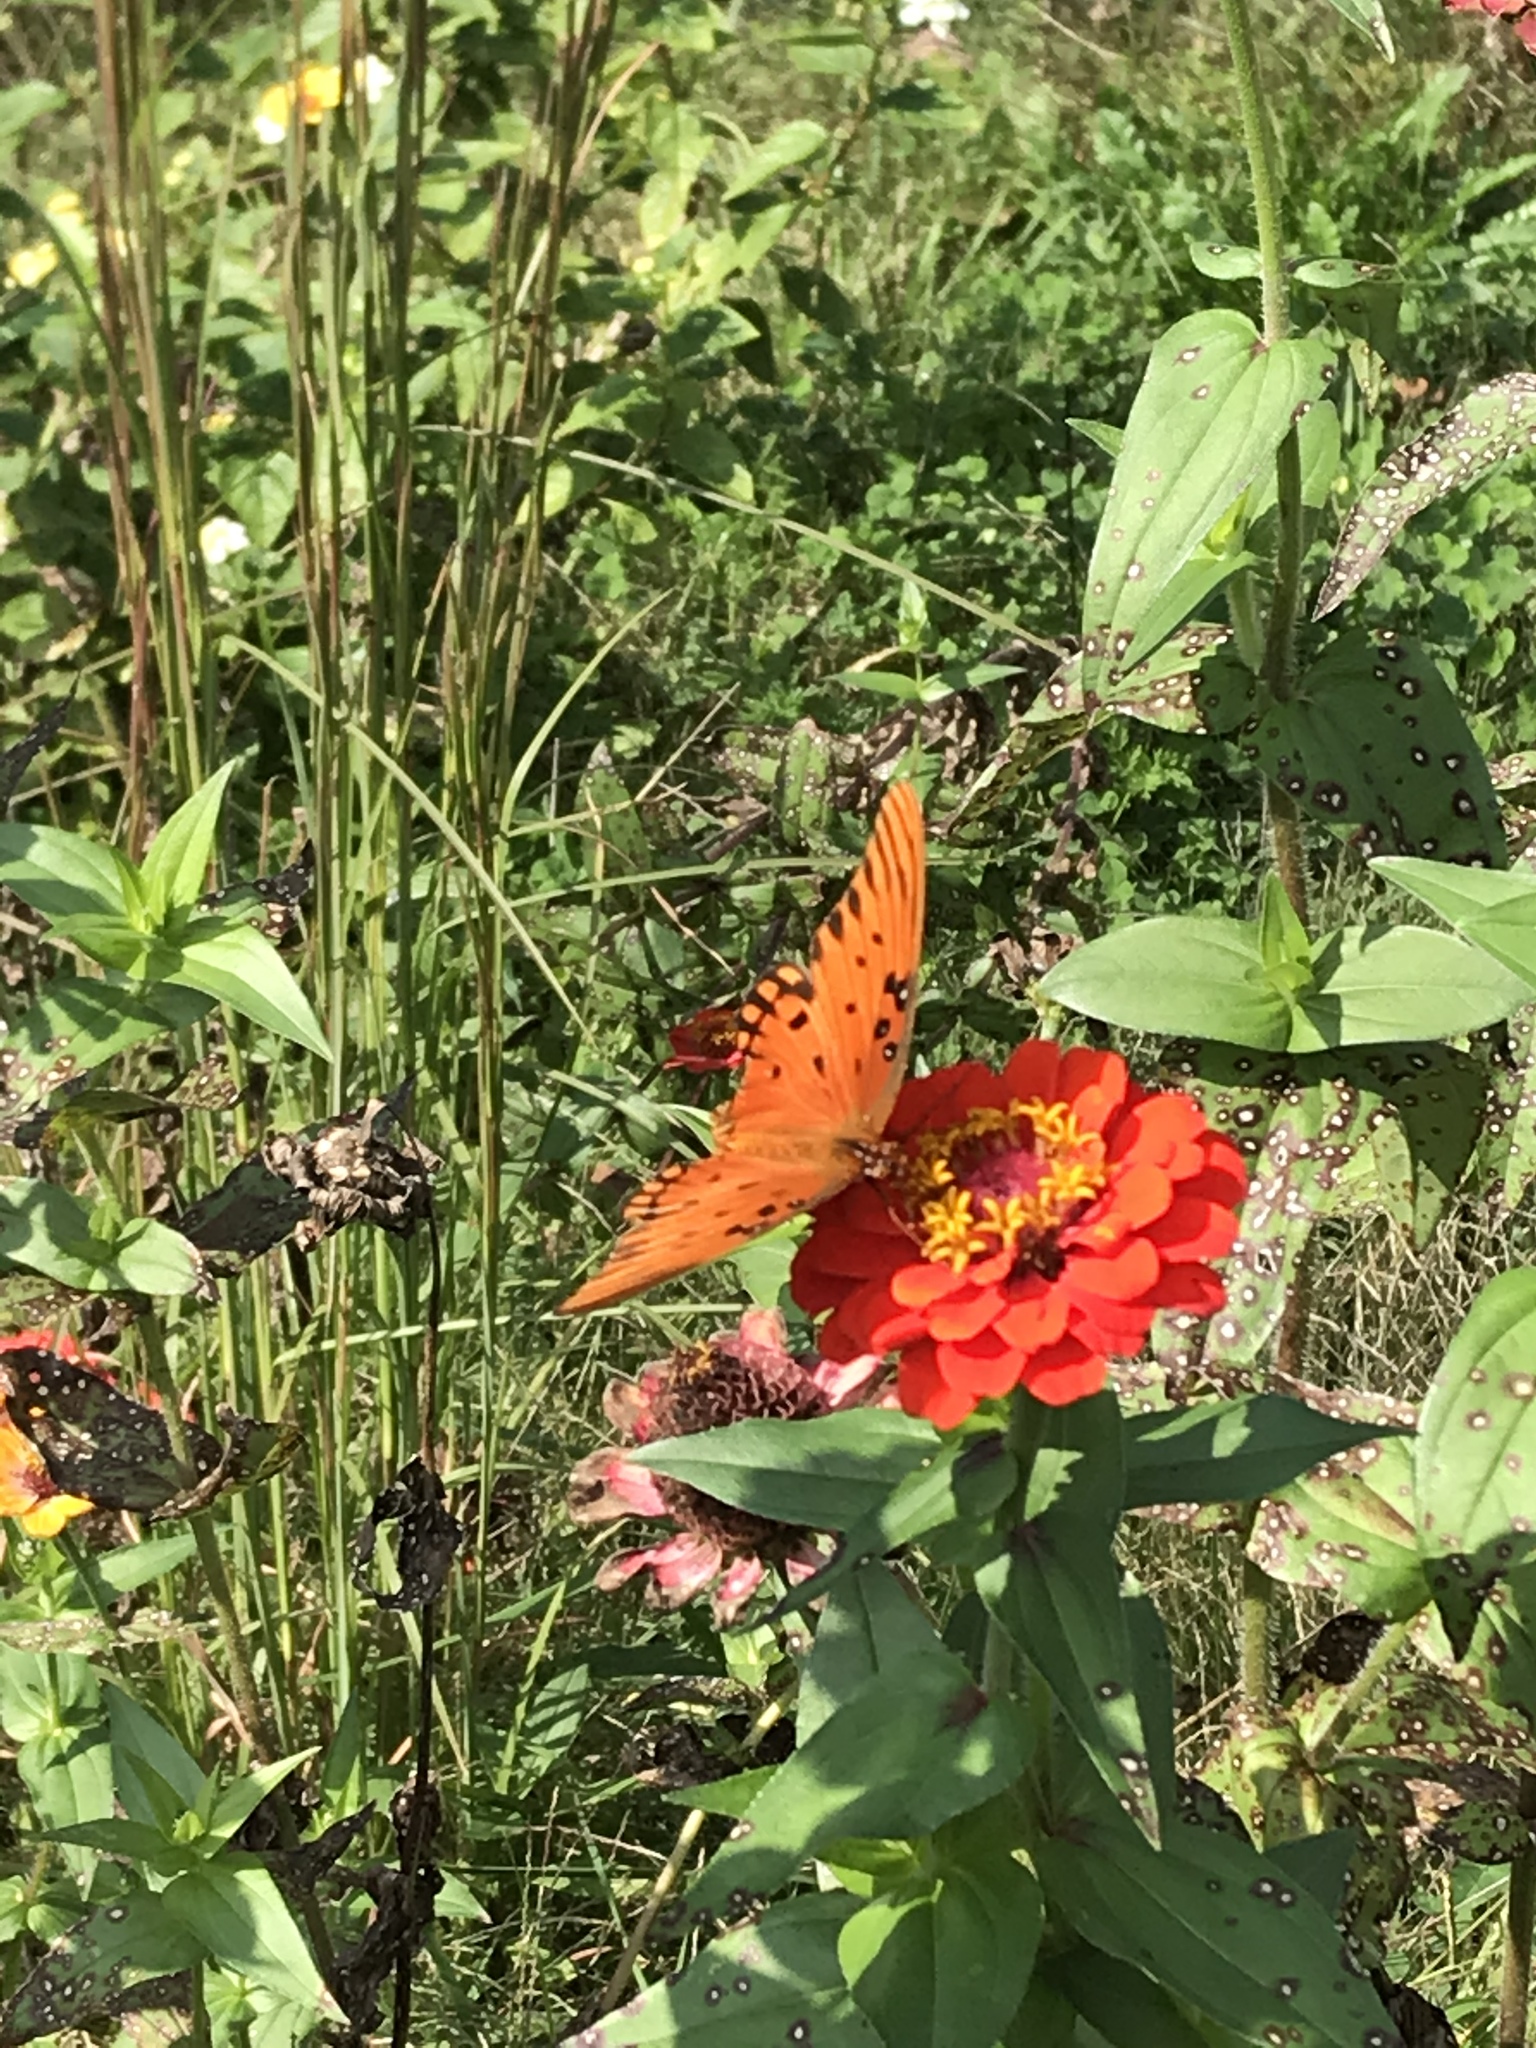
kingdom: Animalia
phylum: Arthropoda
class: Insecta
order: Lepidoptera
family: Nymphalidae
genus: Dione
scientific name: Dione vanillae
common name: Gulf fritillary
